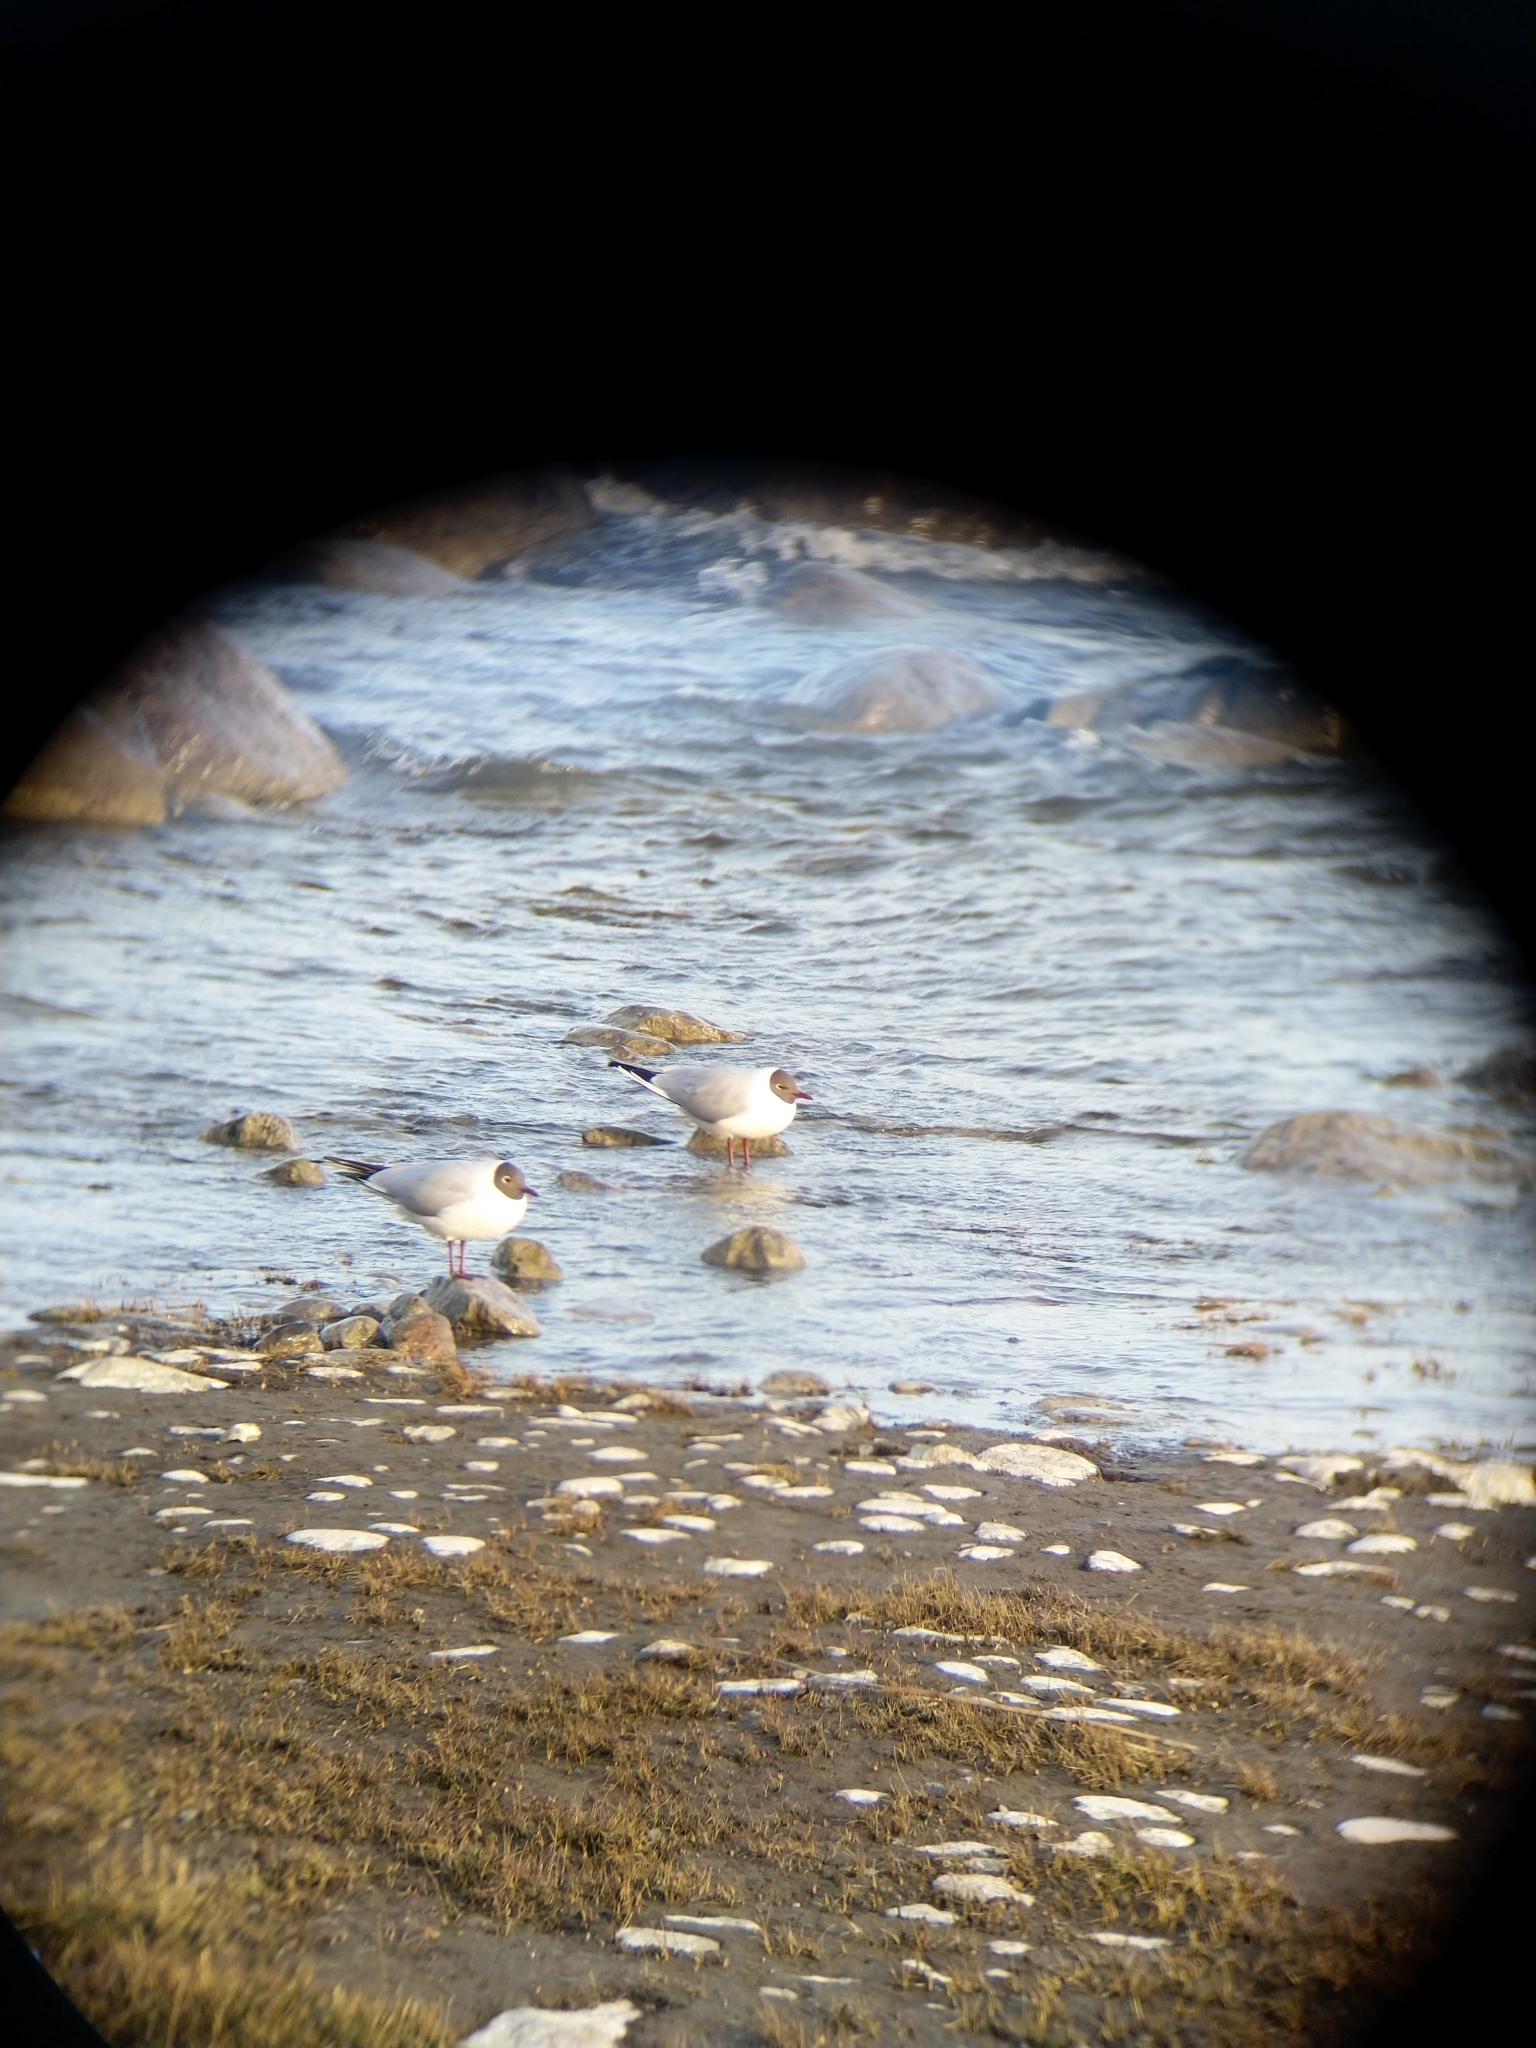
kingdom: Animalia
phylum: Chordata
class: Aves
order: Charadriiformes
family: Laridae
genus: Chroicocephalus
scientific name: Chroicocephalus ridibundus
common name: Black-headed gull
